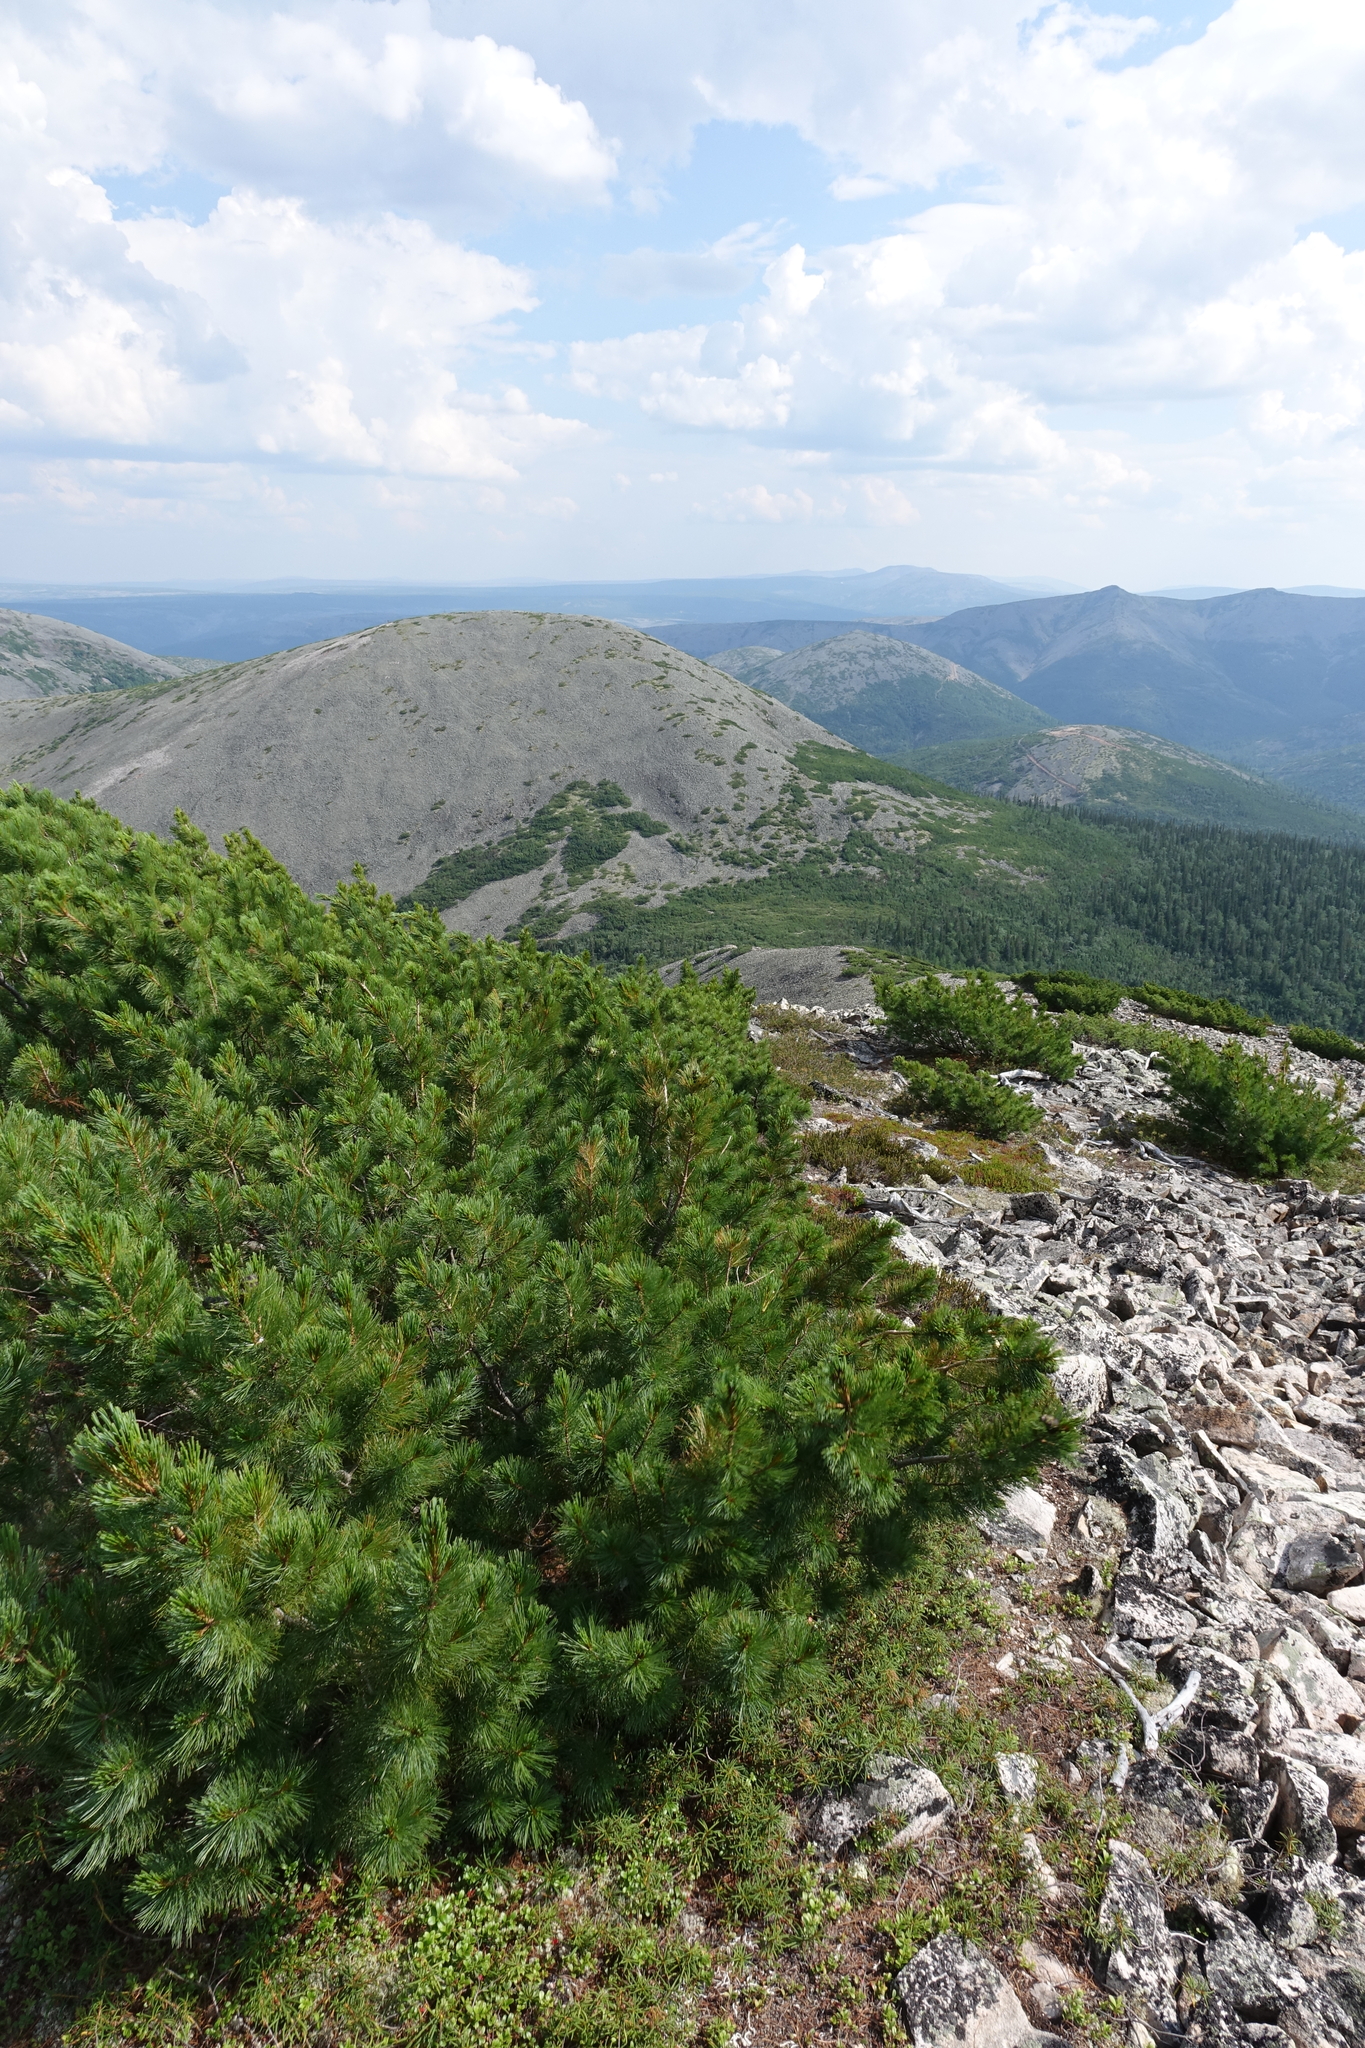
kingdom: Plantae
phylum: Tracheophyta
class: Pinopsida
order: Pinales
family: Pinaceae
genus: Pinus
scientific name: Pinus pumila
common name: Dwarf siberian pine
